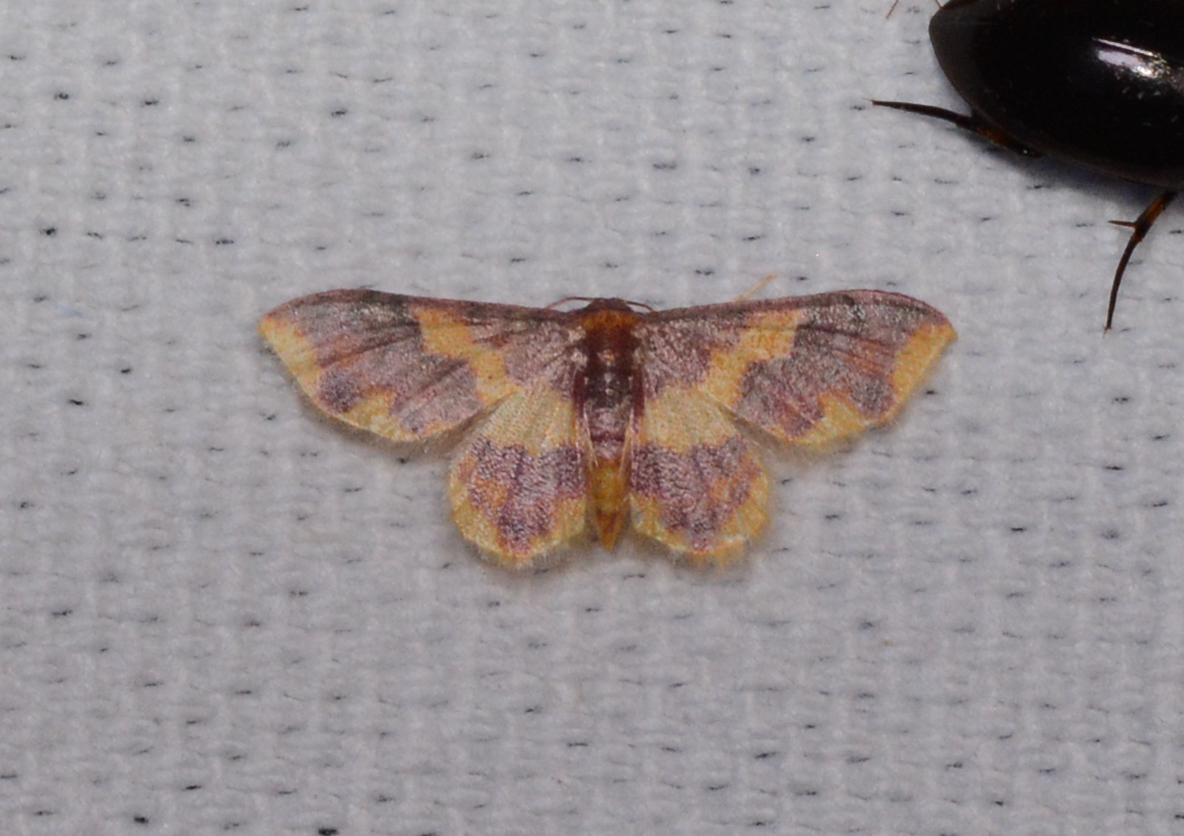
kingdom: Animalia
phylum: Arthropoda
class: Insecta
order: Lepidoptera
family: Geometridae
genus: Lophosis
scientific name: Lophosis labeculata
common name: Stained lophosis moth
